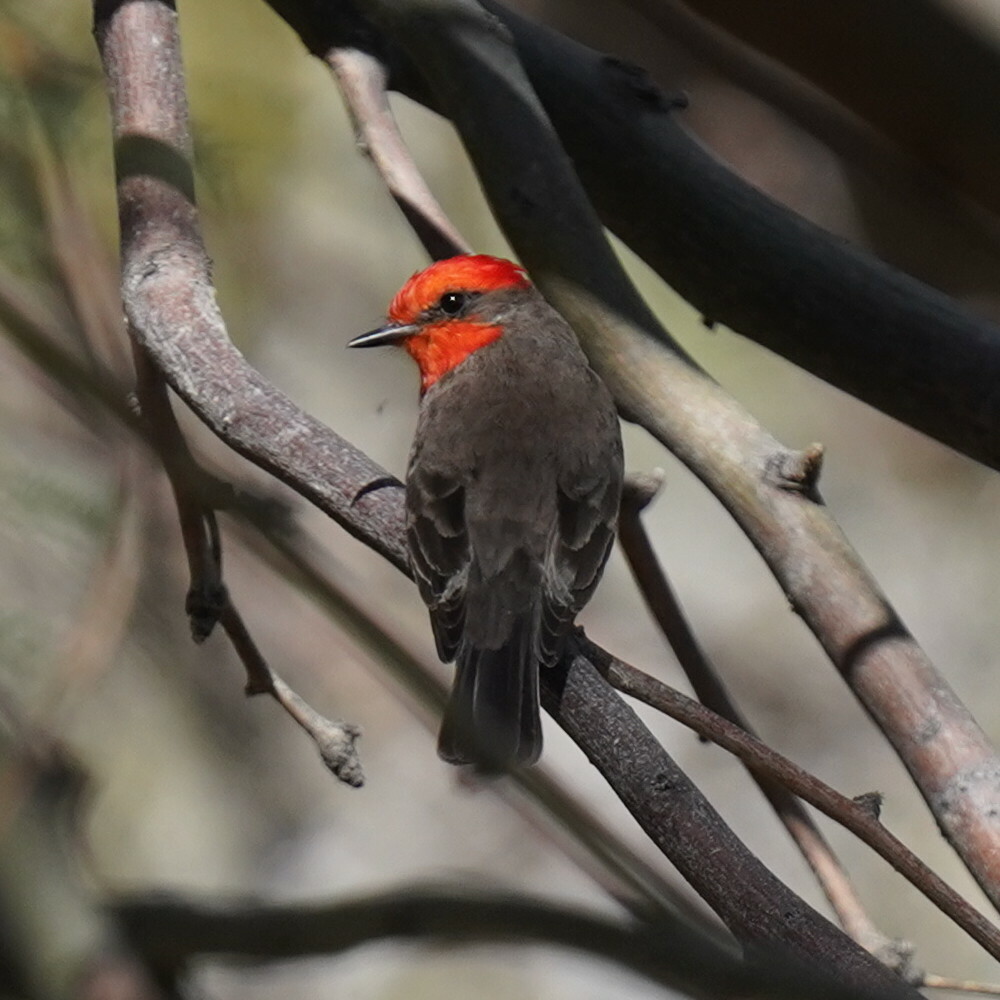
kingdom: Animalia
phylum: Chordata
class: Aves
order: Passeriformes
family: Tyrannidae
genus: Pyrocephalus
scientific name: Pyrocephalus rubinus
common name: Vermilion flycatcher
